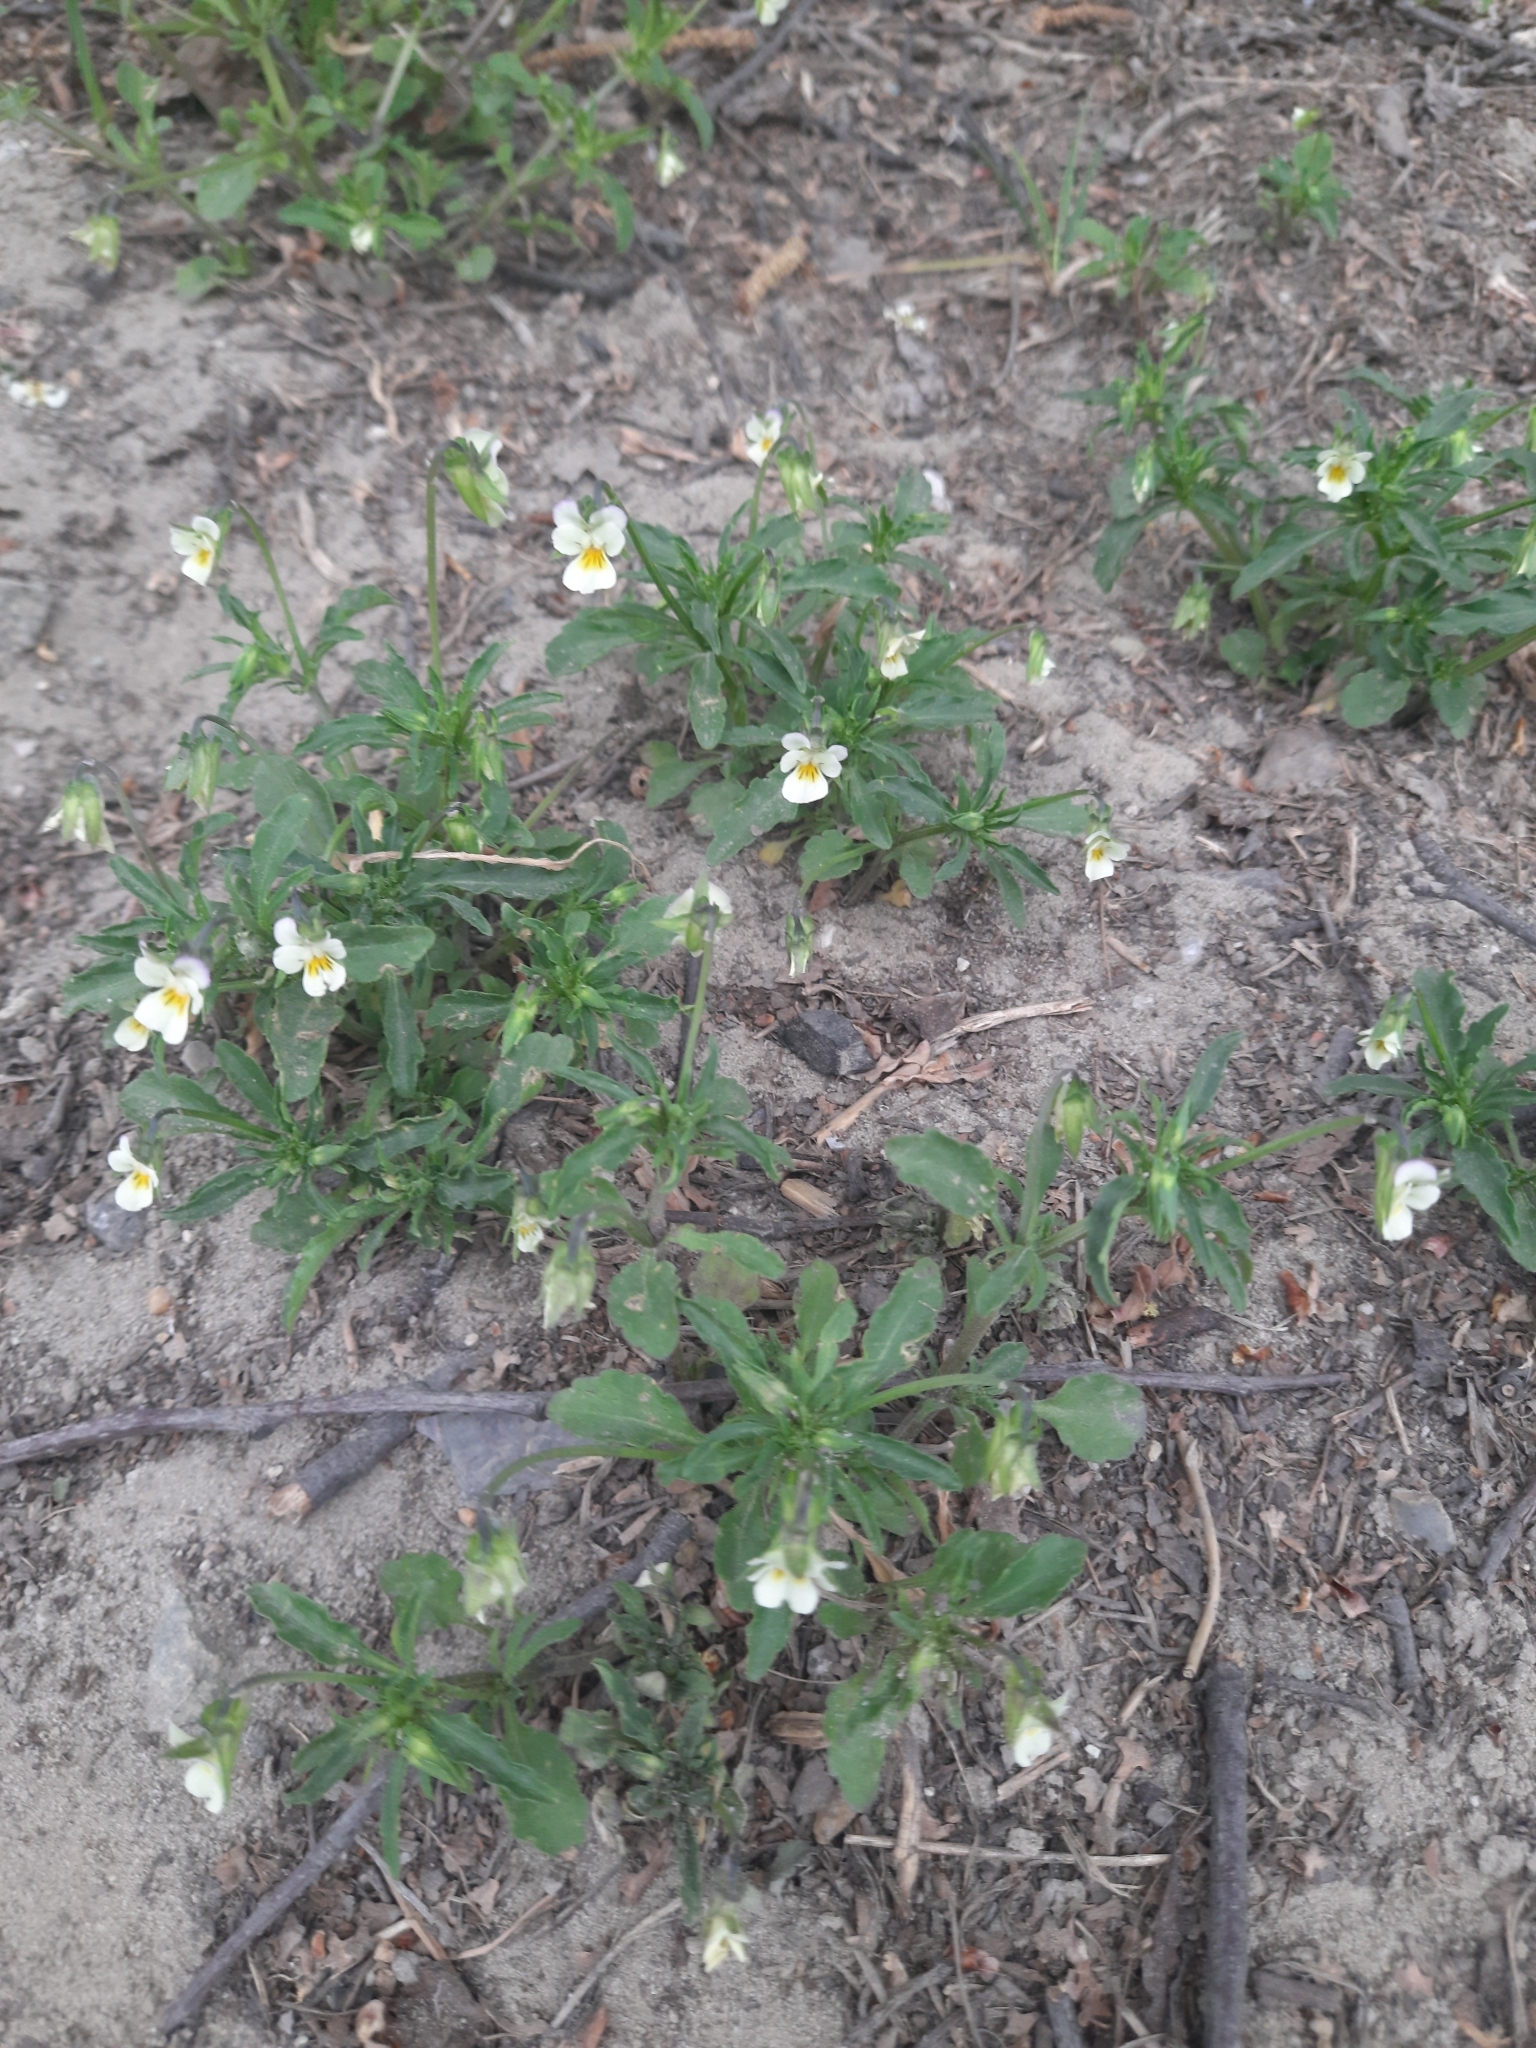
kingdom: Plantae
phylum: Tracheophyta
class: Magnoliopsida
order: Malpighiales
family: Violaceae
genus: Viola
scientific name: Viola arvensis
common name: Field pansy
